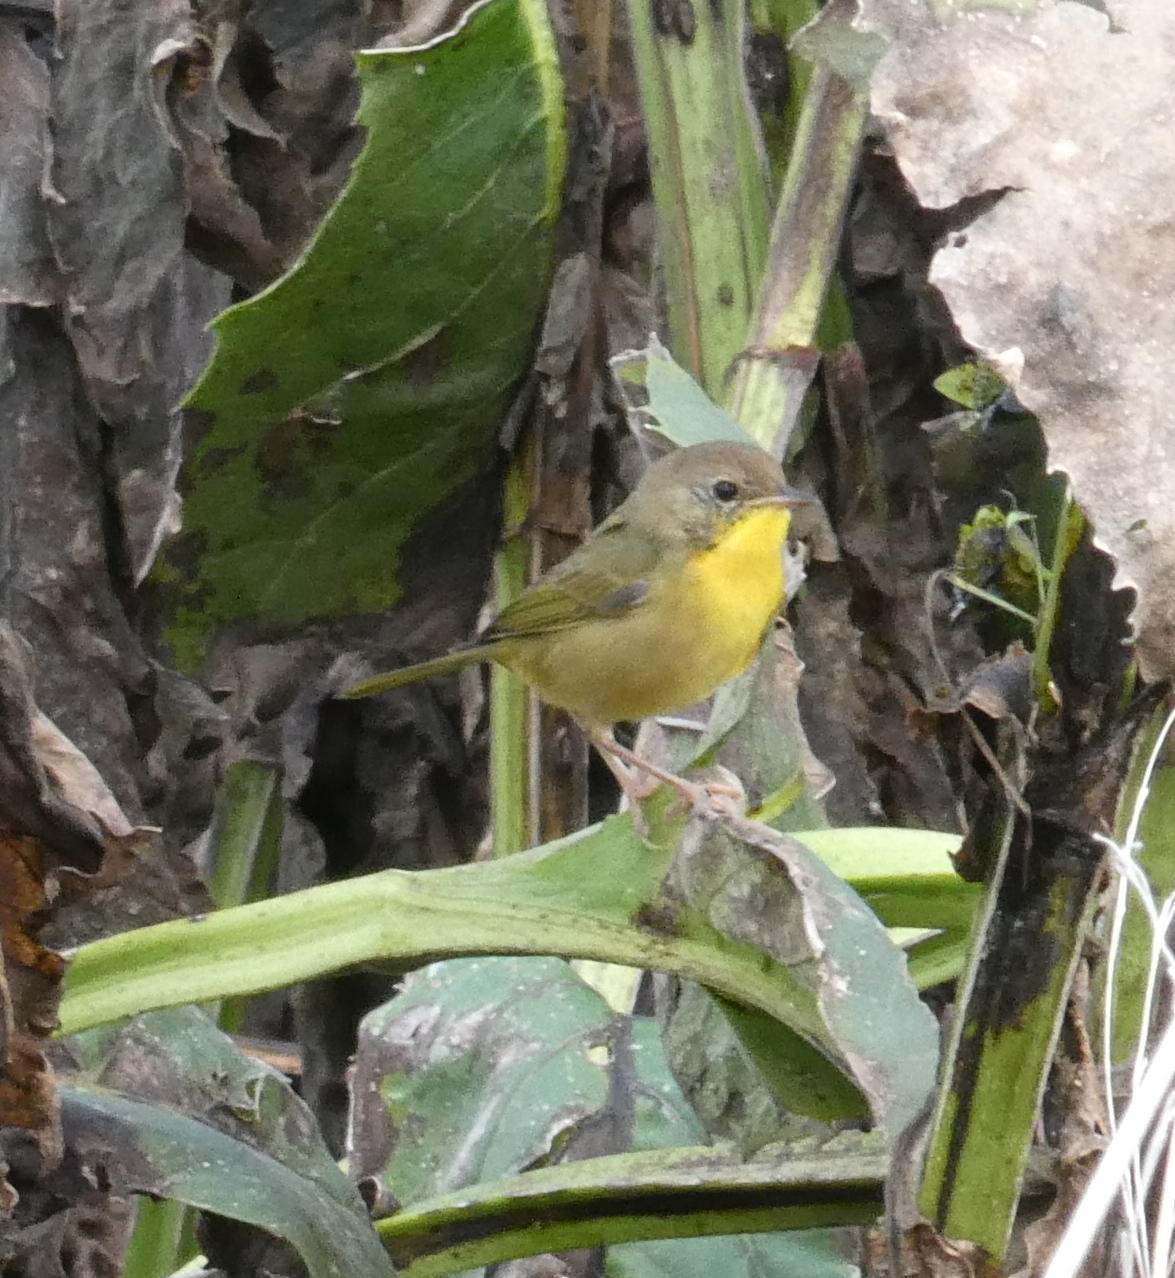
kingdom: Animalia
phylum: Chordata
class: Aves
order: Passeriformes
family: Parulidae
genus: Geothlypis
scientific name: Geothlypis trichas
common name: Common yellowthroat
